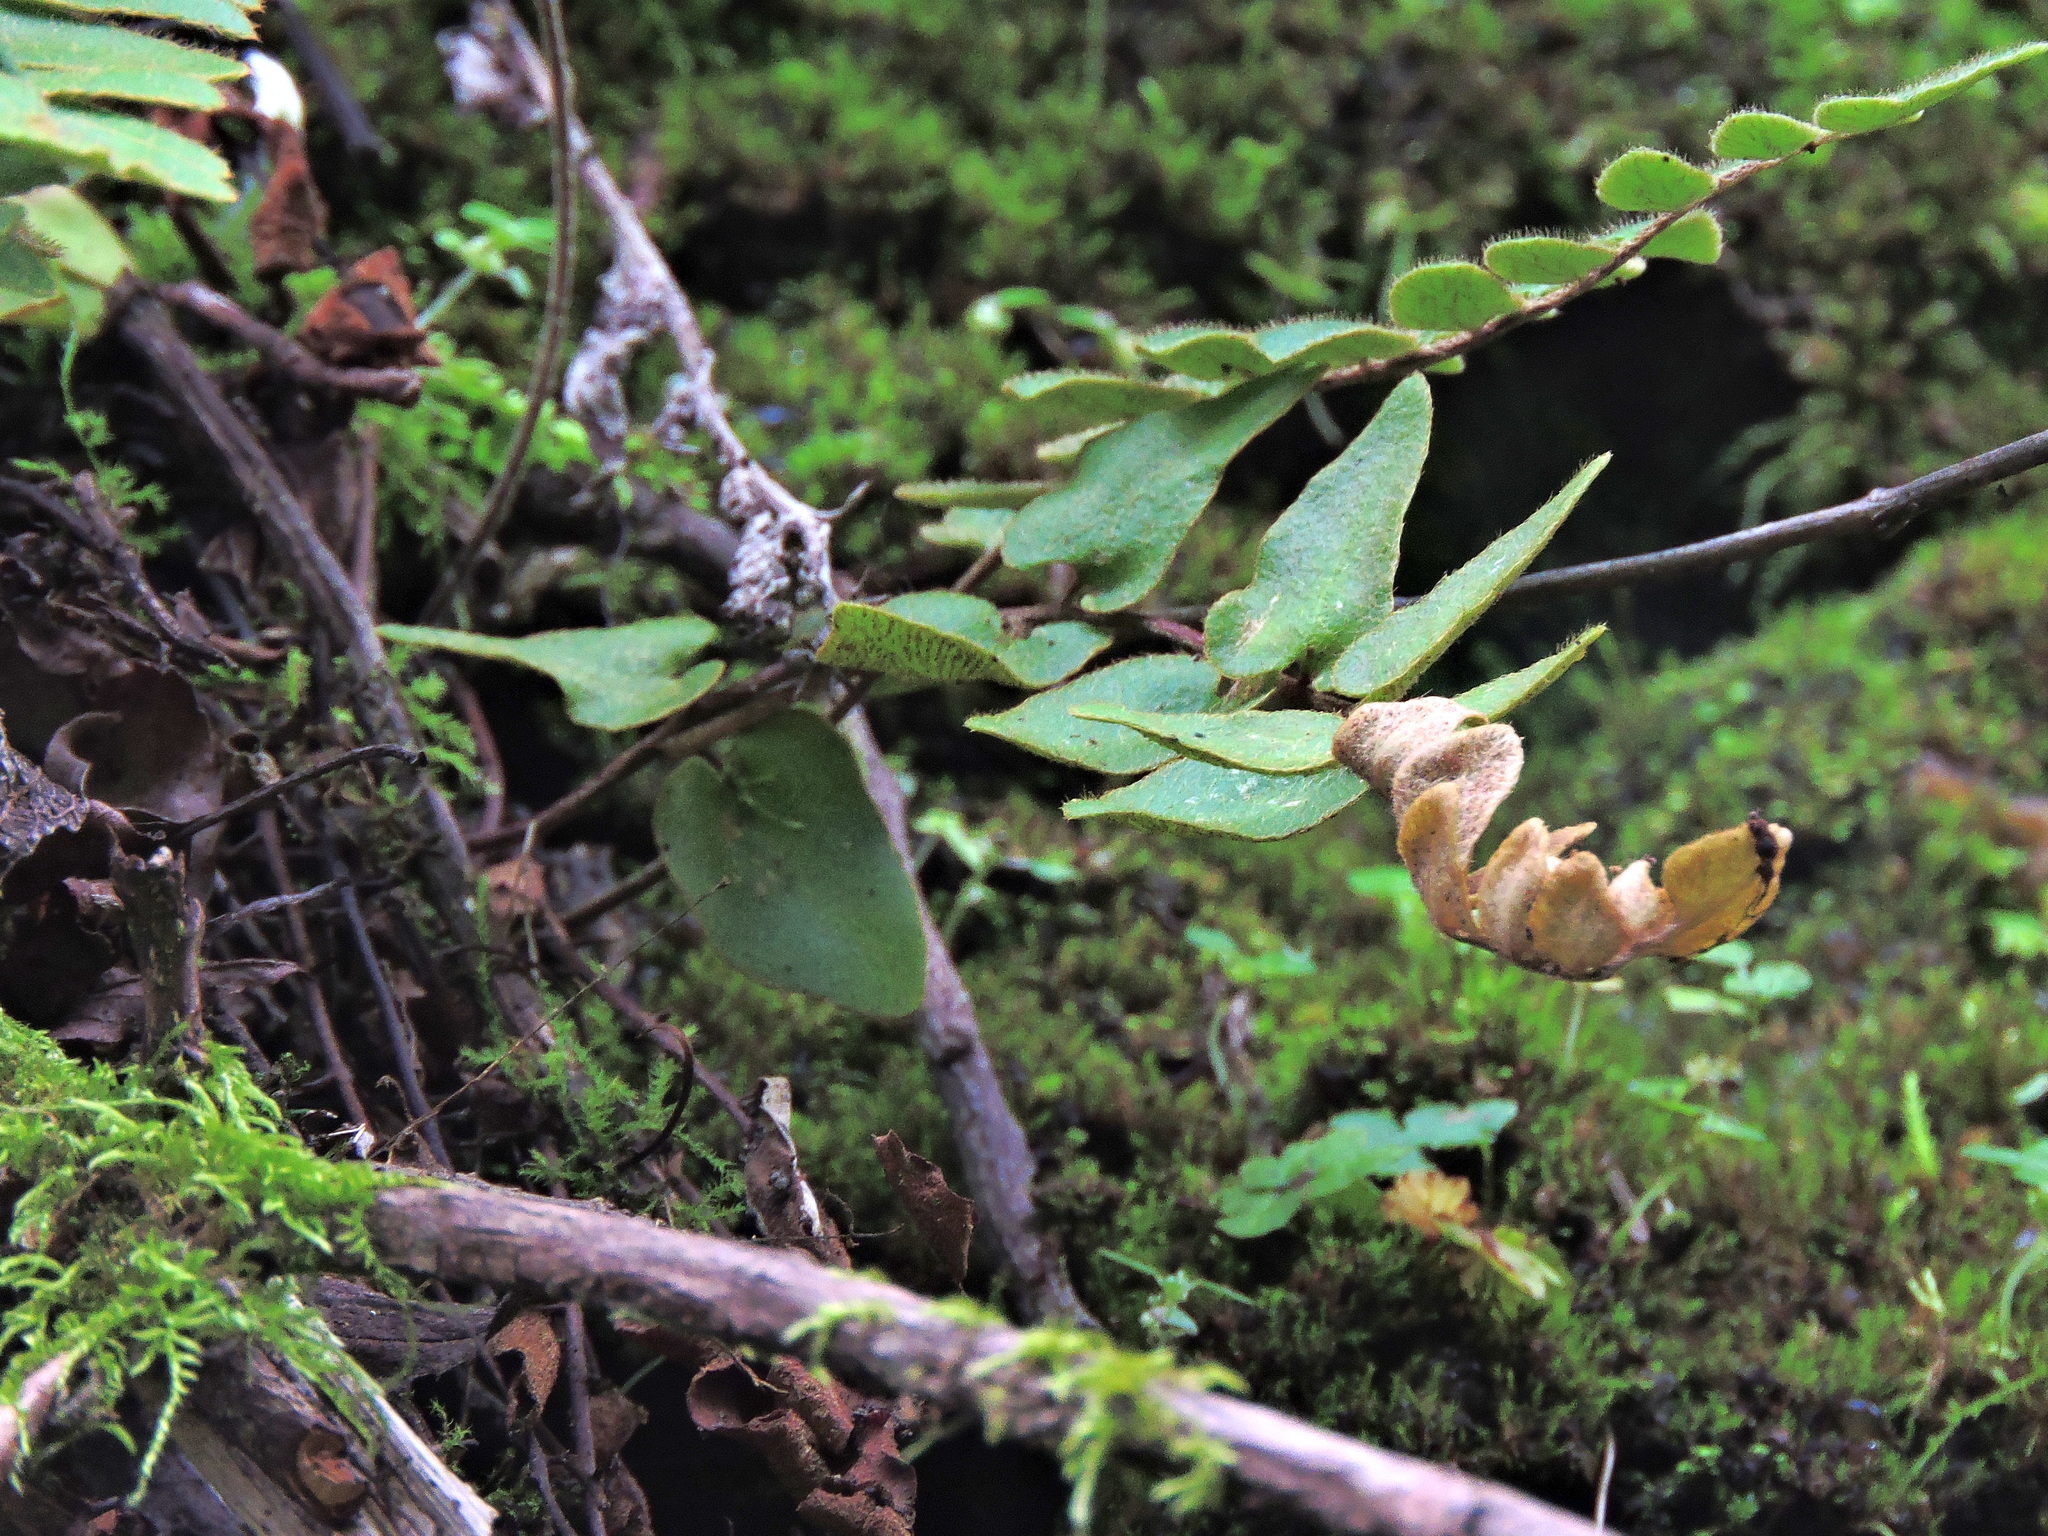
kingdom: Plantae
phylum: Tracheophyta
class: Polypodiopsida
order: Polypodiales
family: Pteridaceae
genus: Paragymnopteris
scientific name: Paragymnopteris vestita
